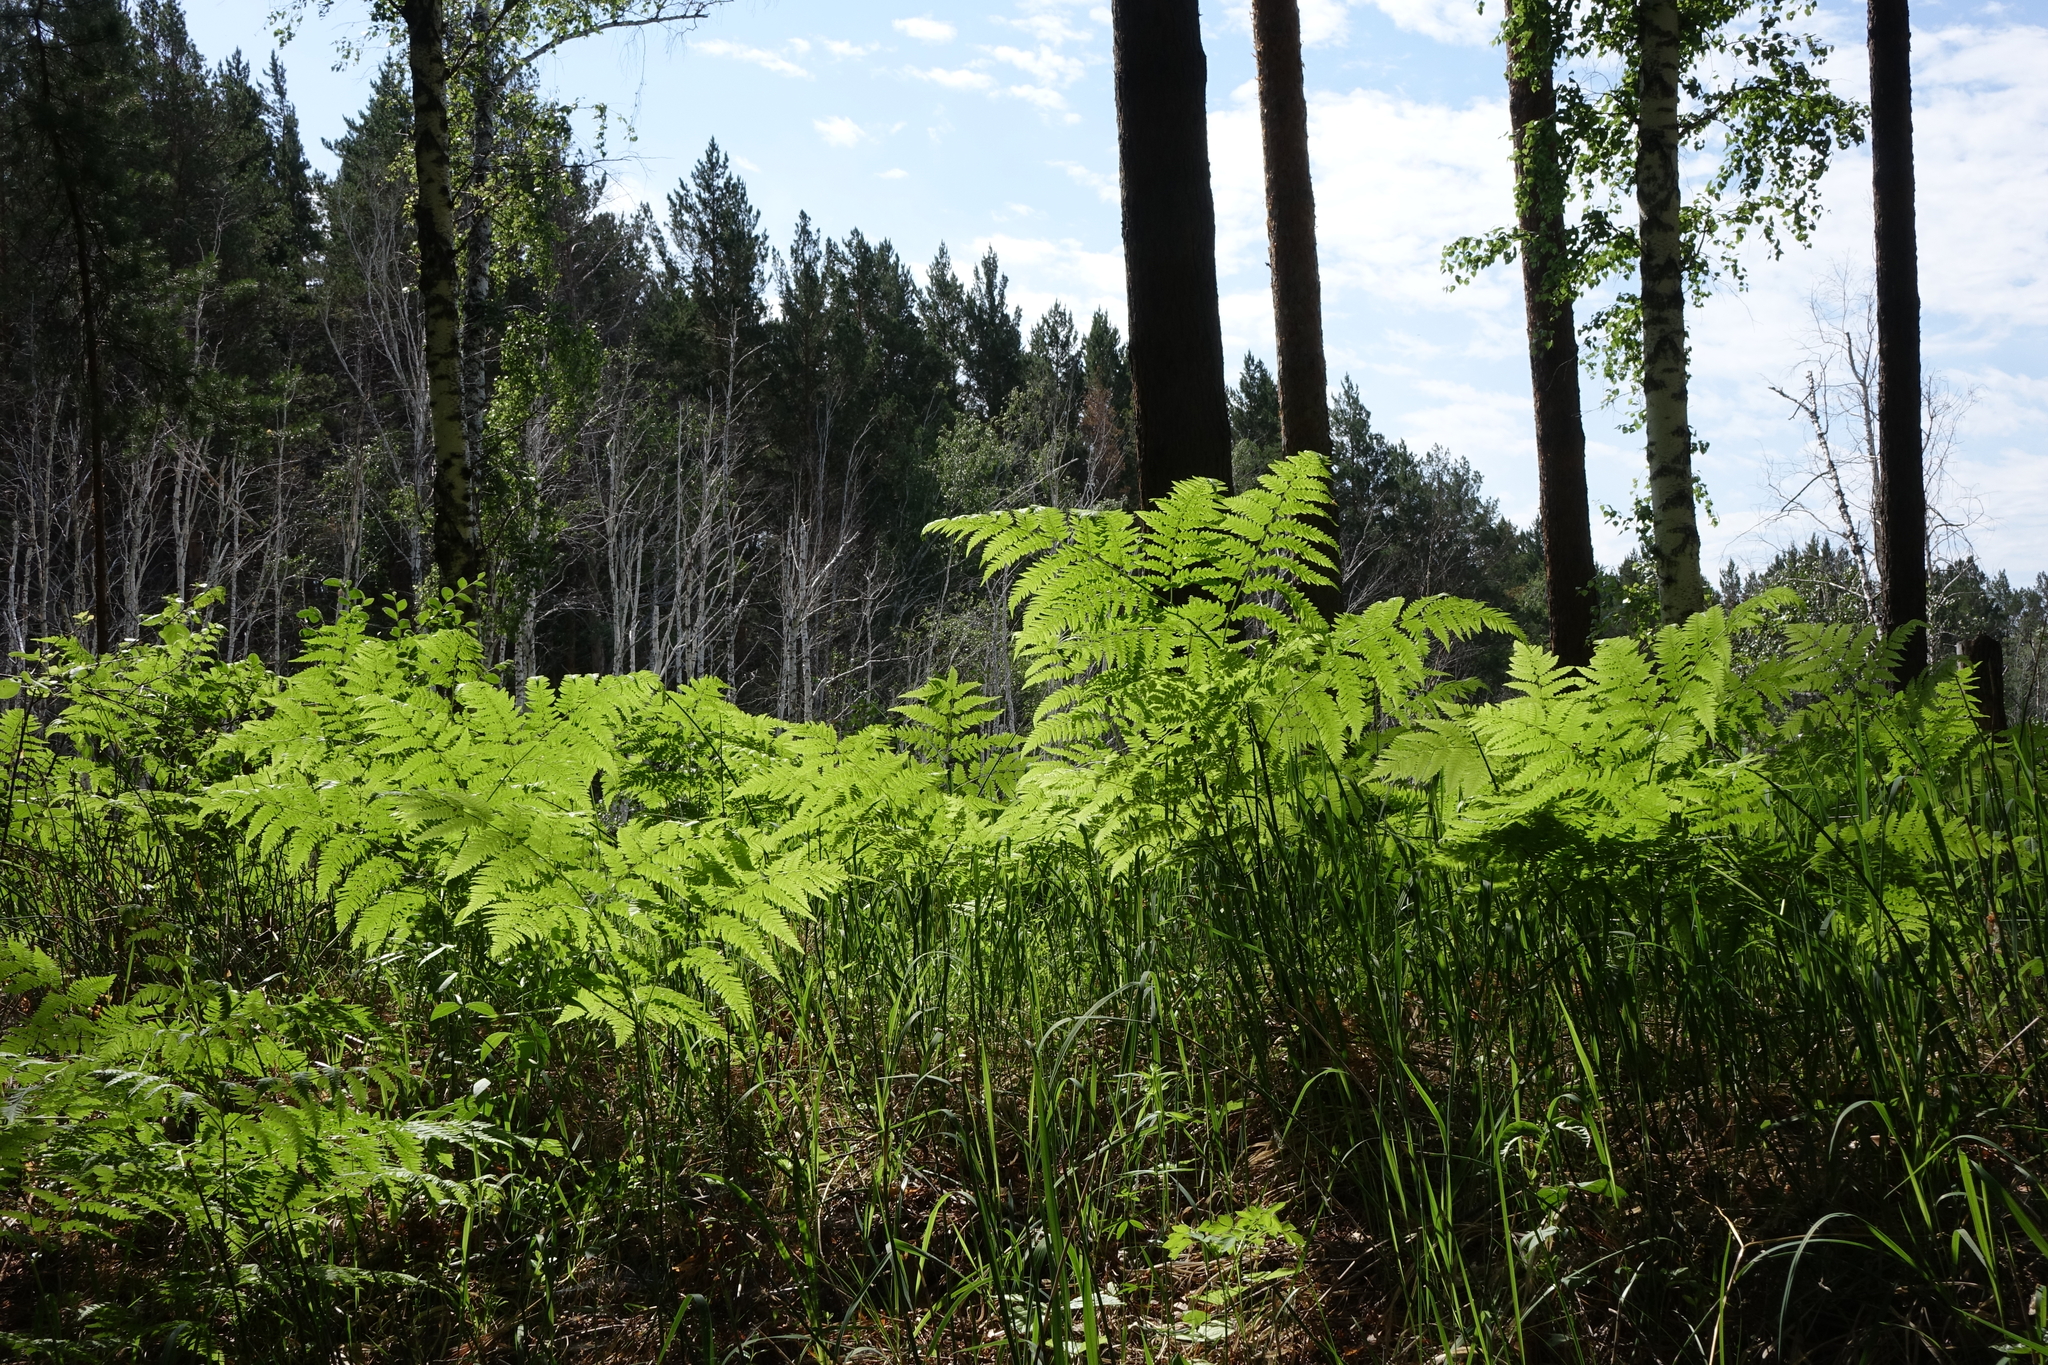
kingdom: Plantae
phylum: Tracheophyta
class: Polypodiopsida
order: Polypodiales
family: Dennstaedtiaceae
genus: Pteridium
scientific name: Pteridium aquilinum
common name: Bracken
